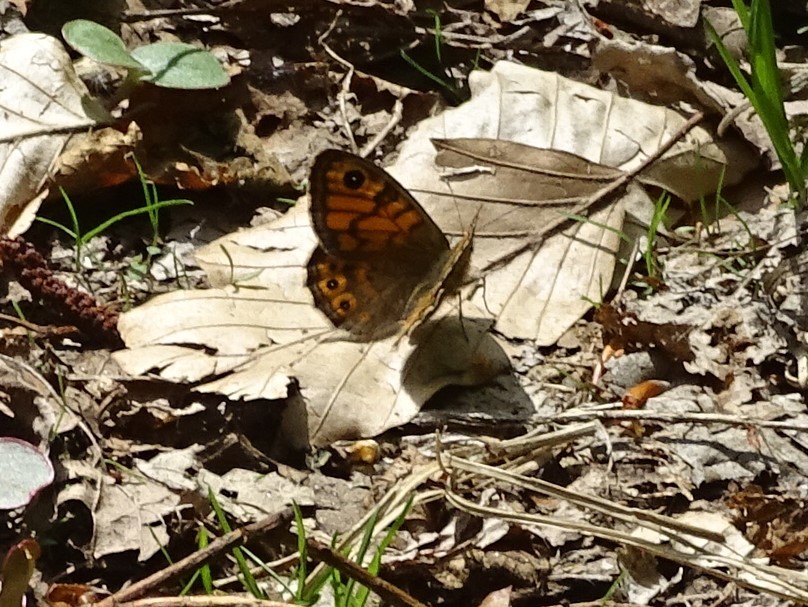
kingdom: Animalia
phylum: Arthropoda
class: Insecta
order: Lepidoptera
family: Nymphalidae
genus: Pararge
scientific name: Pararge Lasiommata megera
